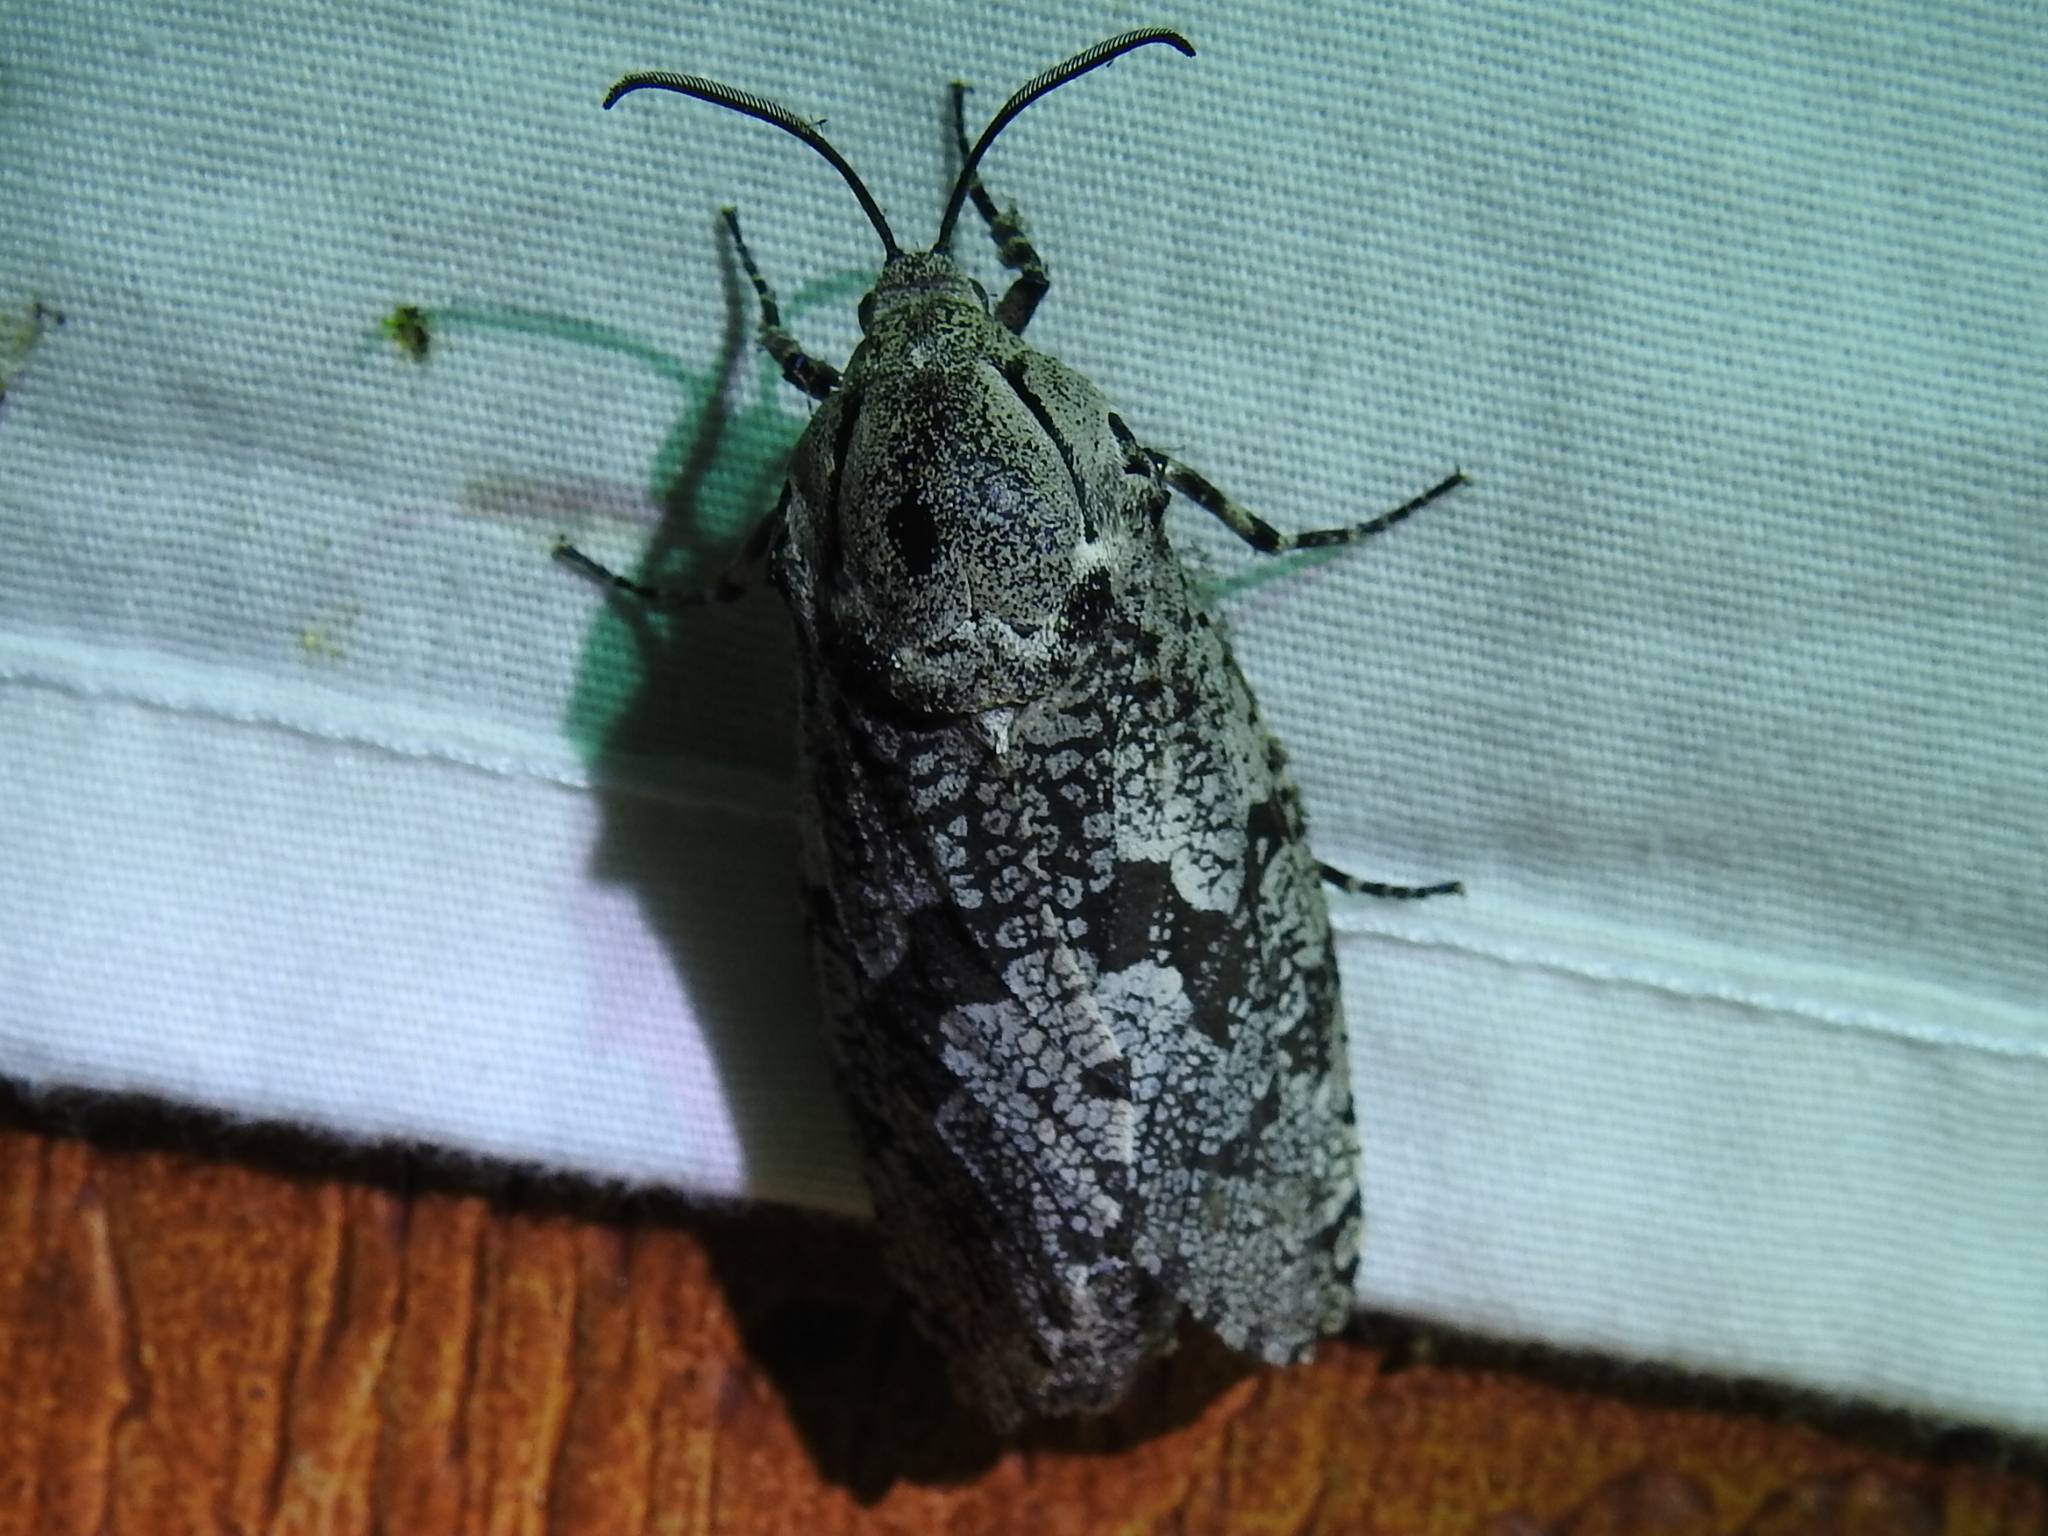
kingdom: Animalia
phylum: Arthropoda
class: Insecta
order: Lepidoptera
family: Cossidae
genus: Prionoxystus
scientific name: Prionoxystus robiniae
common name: Carpenterworm
